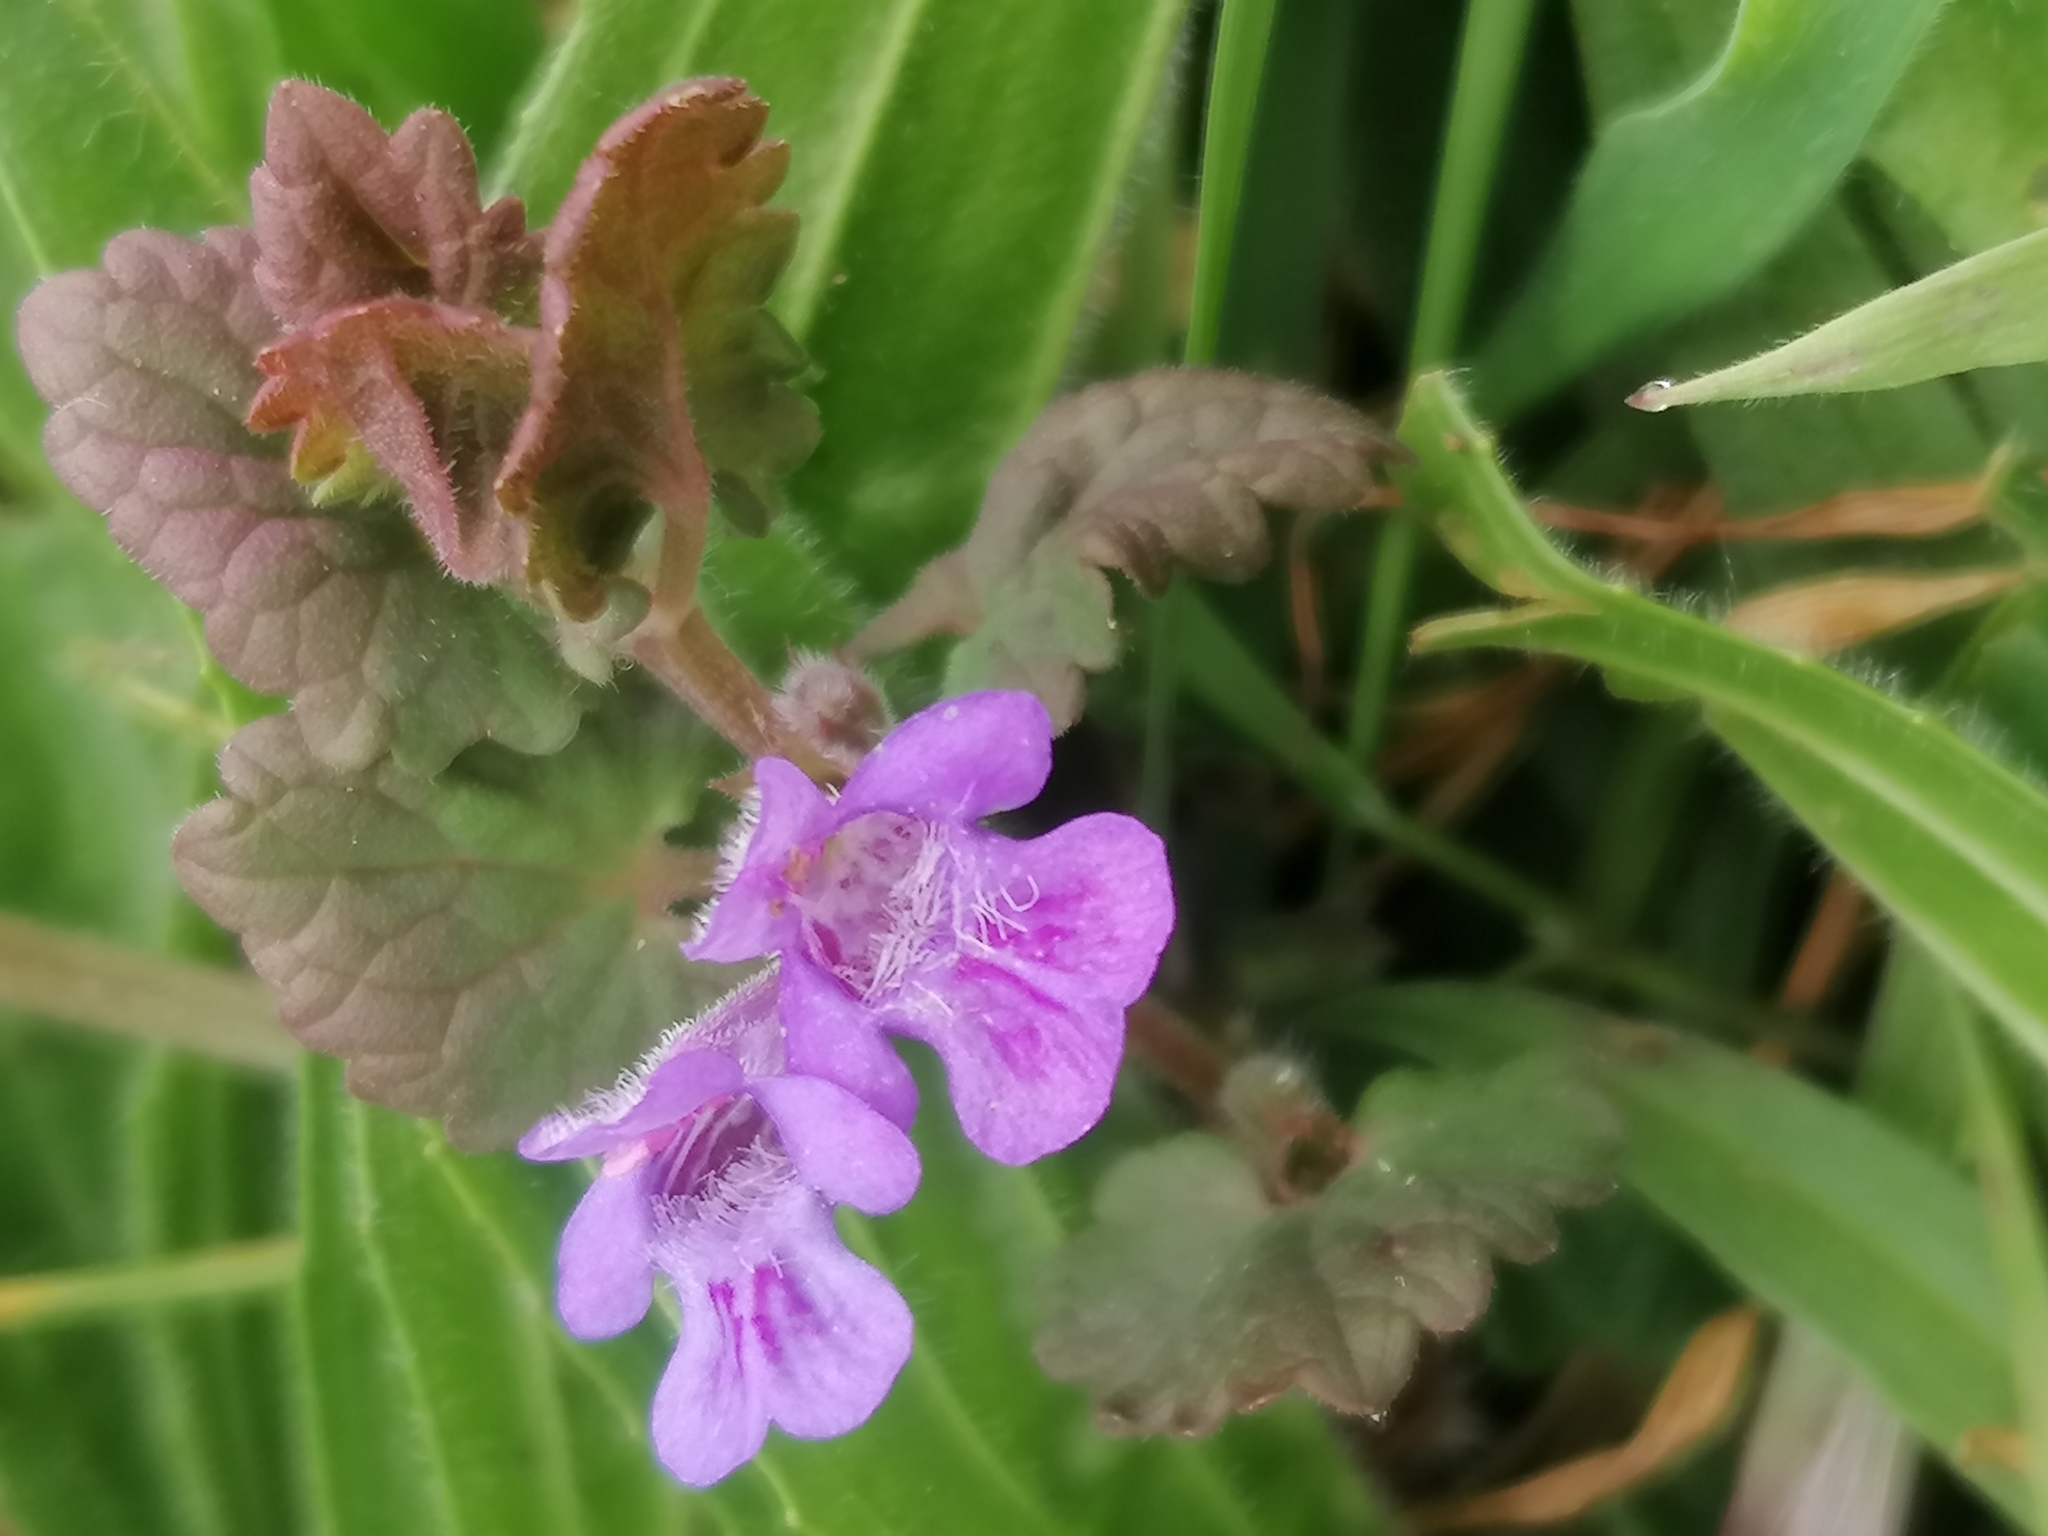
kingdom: Plantae
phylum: Tracheophyta
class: Magnoliopsida
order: Lamiales
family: Lamiaceae
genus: Glechoma
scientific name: Glechoma hederacea
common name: Ground ivy
